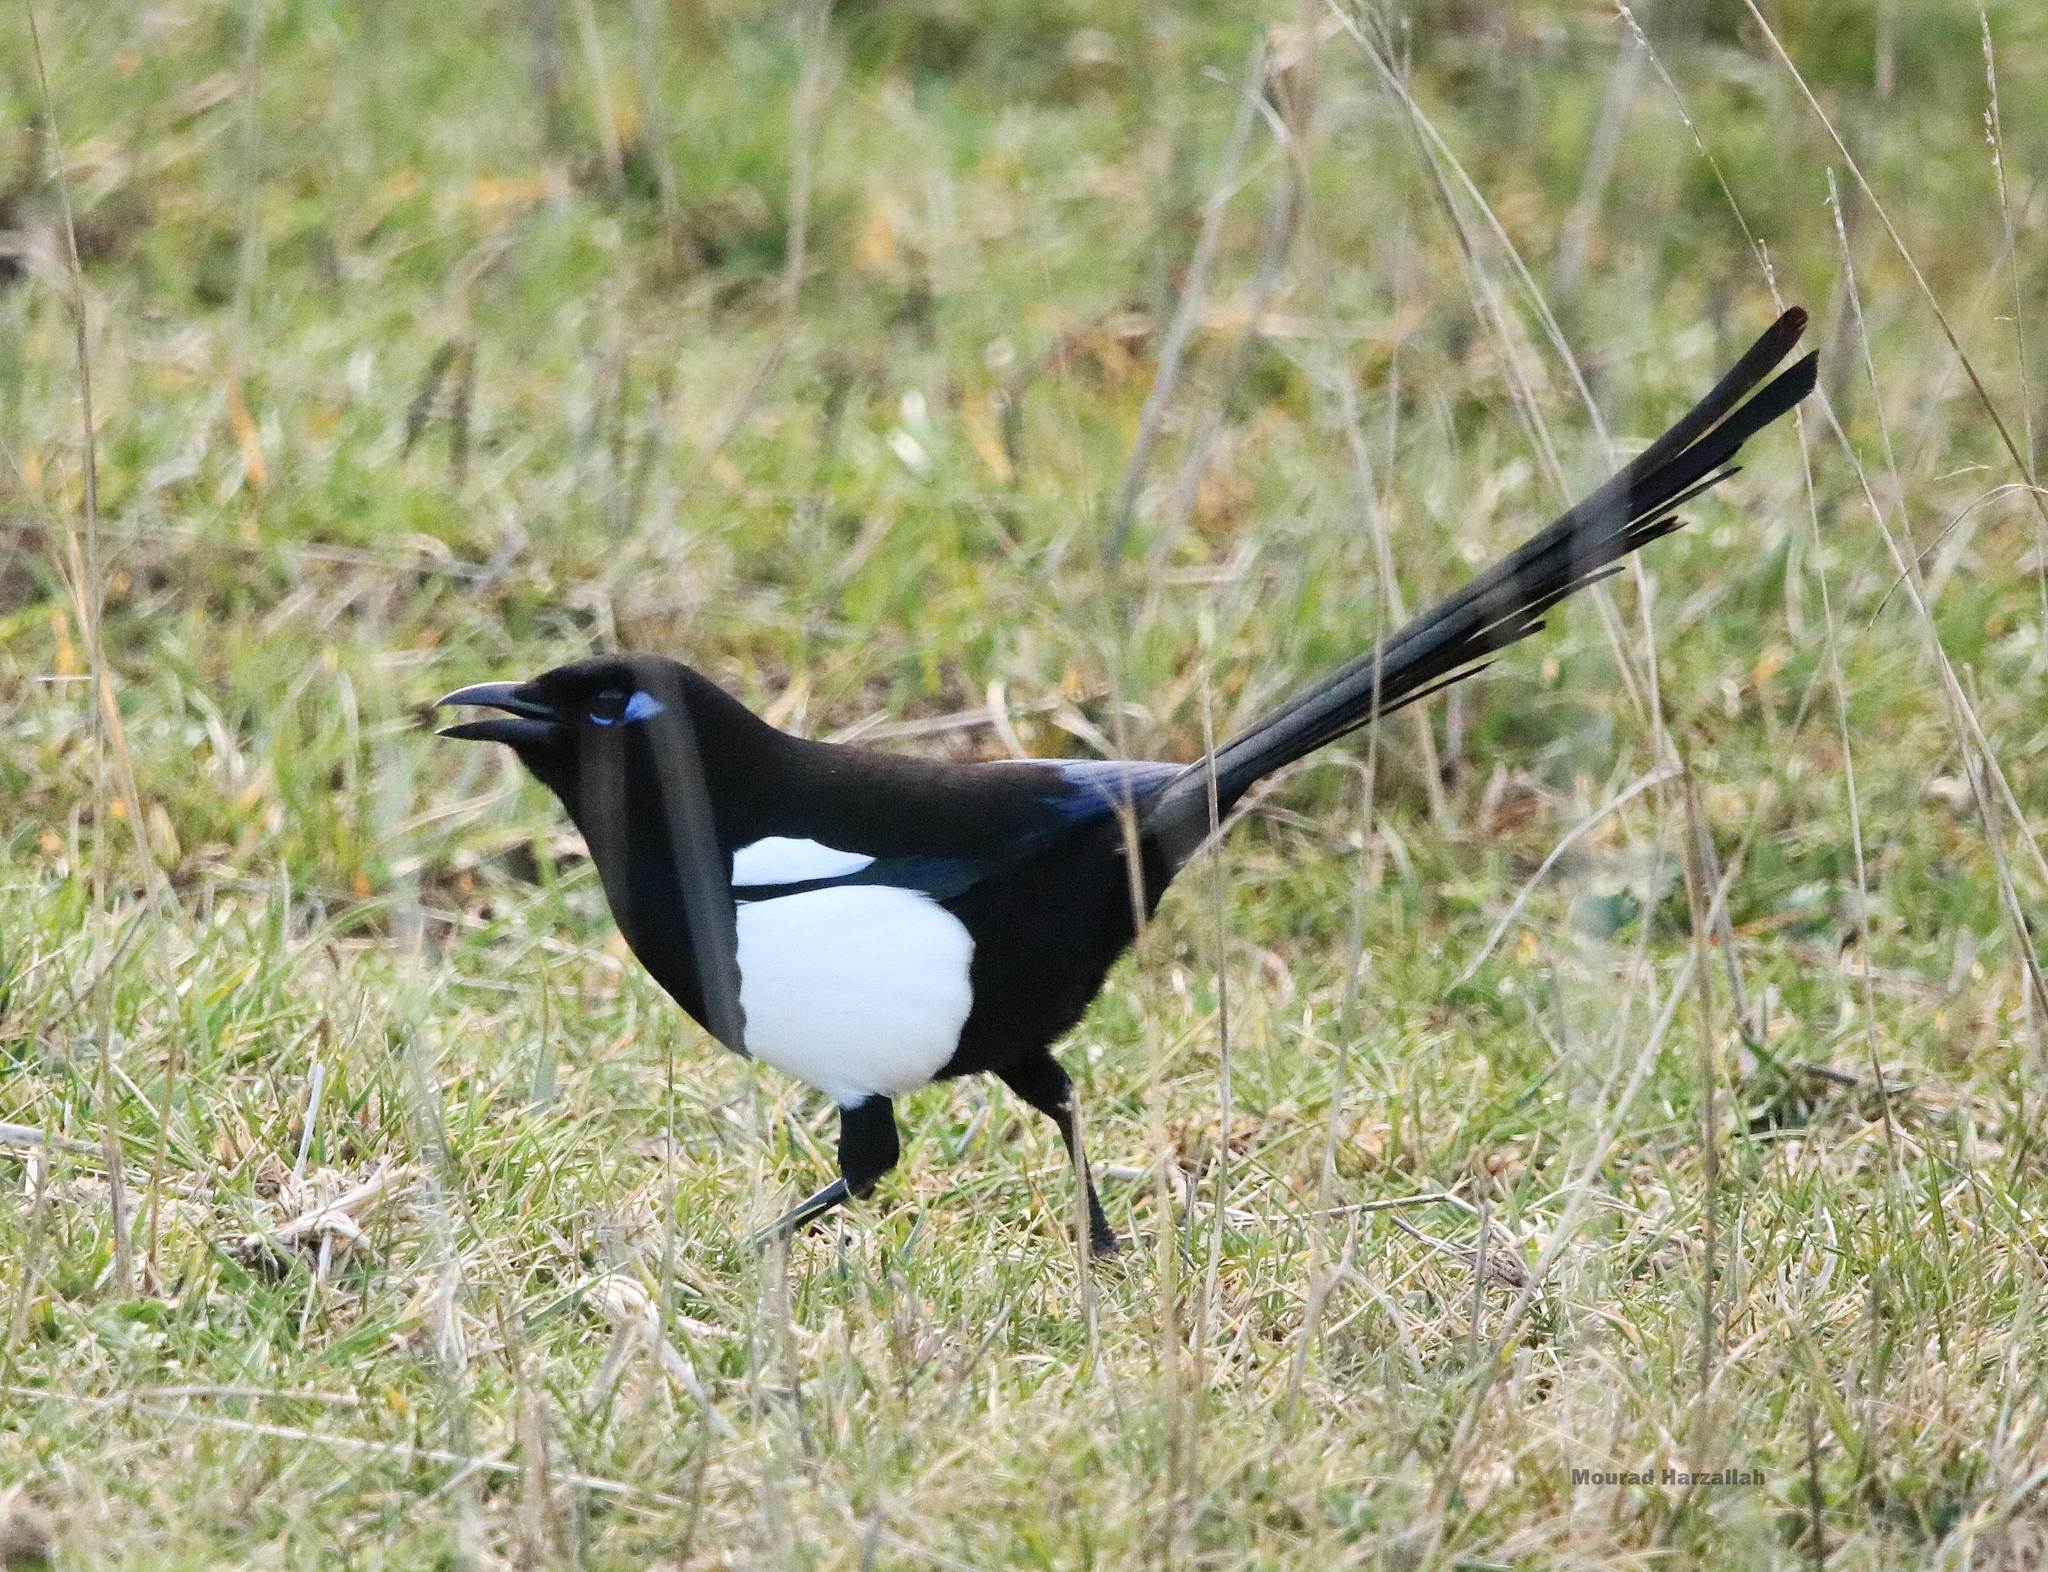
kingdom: Animalia
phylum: Chordata
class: Aves
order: Passeriformes
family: Corvidae
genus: Pica
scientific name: Pica mauritanica
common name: Maghreb magpie
